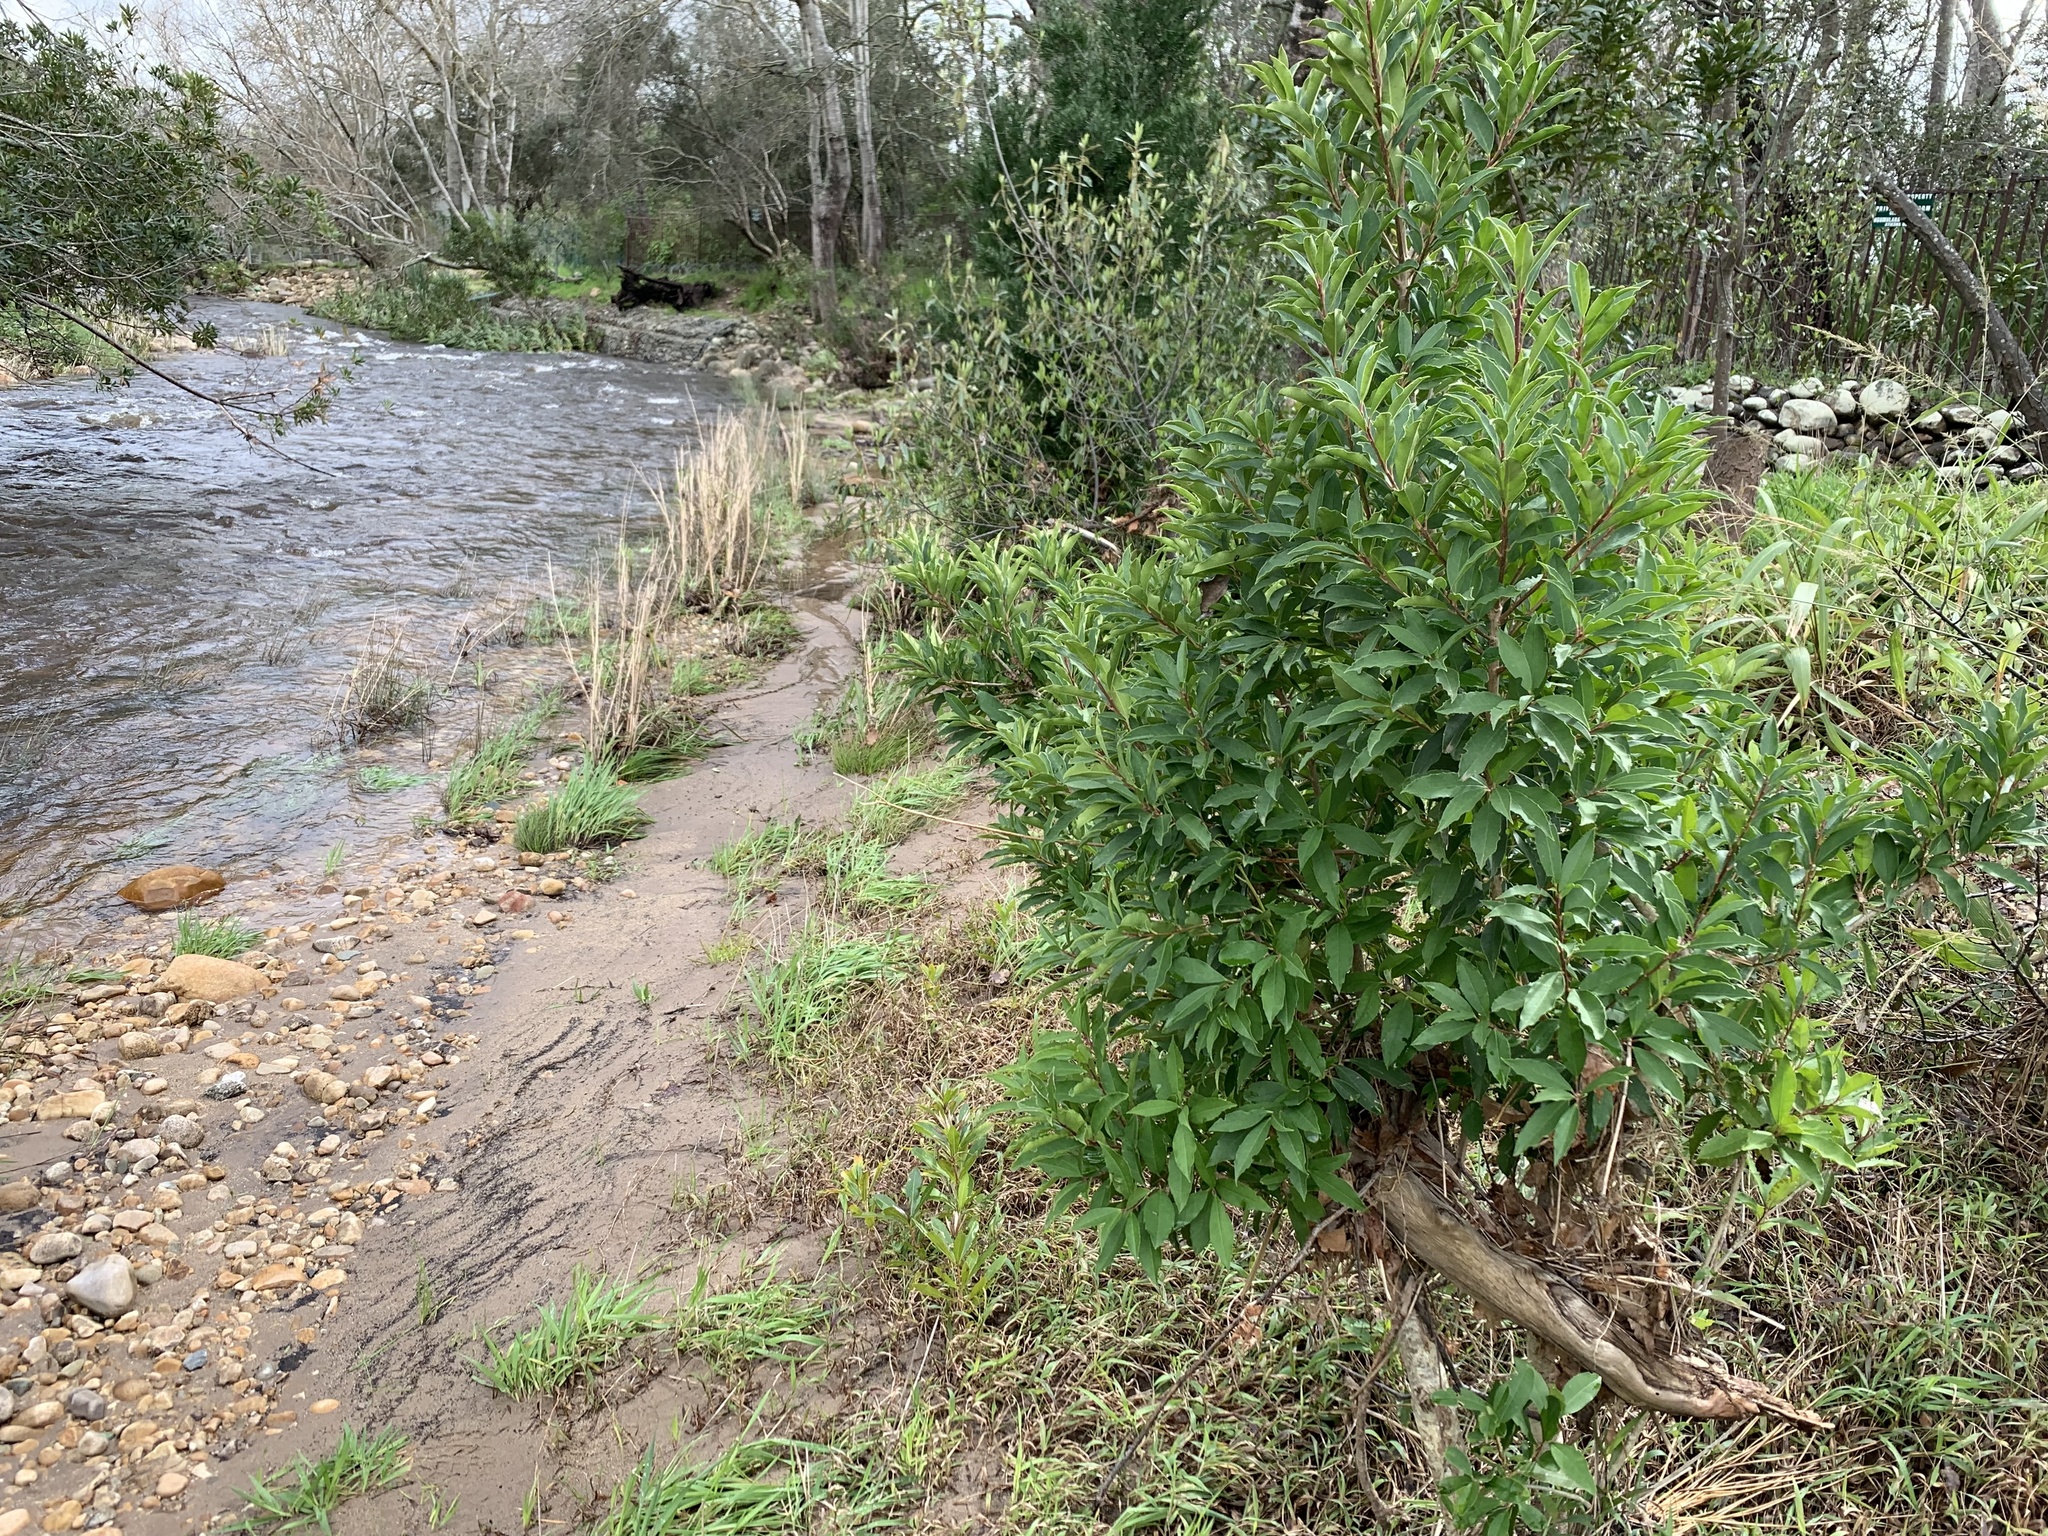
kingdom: Plantae
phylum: Tracheophyta
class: Magnoliopsida
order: Aquifoliales
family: Aquifoliaceae
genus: Ilex
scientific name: Ilex mitis
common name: African holly
